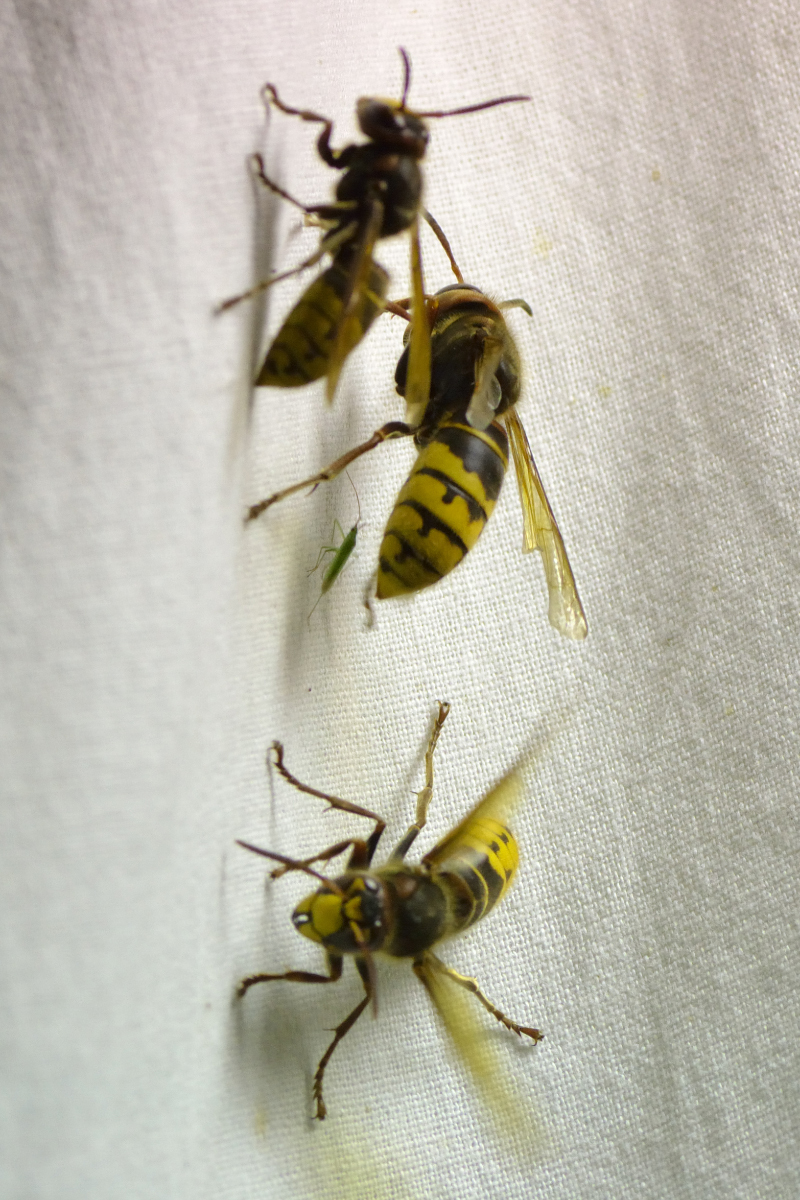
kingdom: Animalia
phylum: Arthropoda
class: Insecta
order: Hymenoptera
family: Vespidae
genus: Vespa
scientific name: Vespa crabro
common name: Hornet
